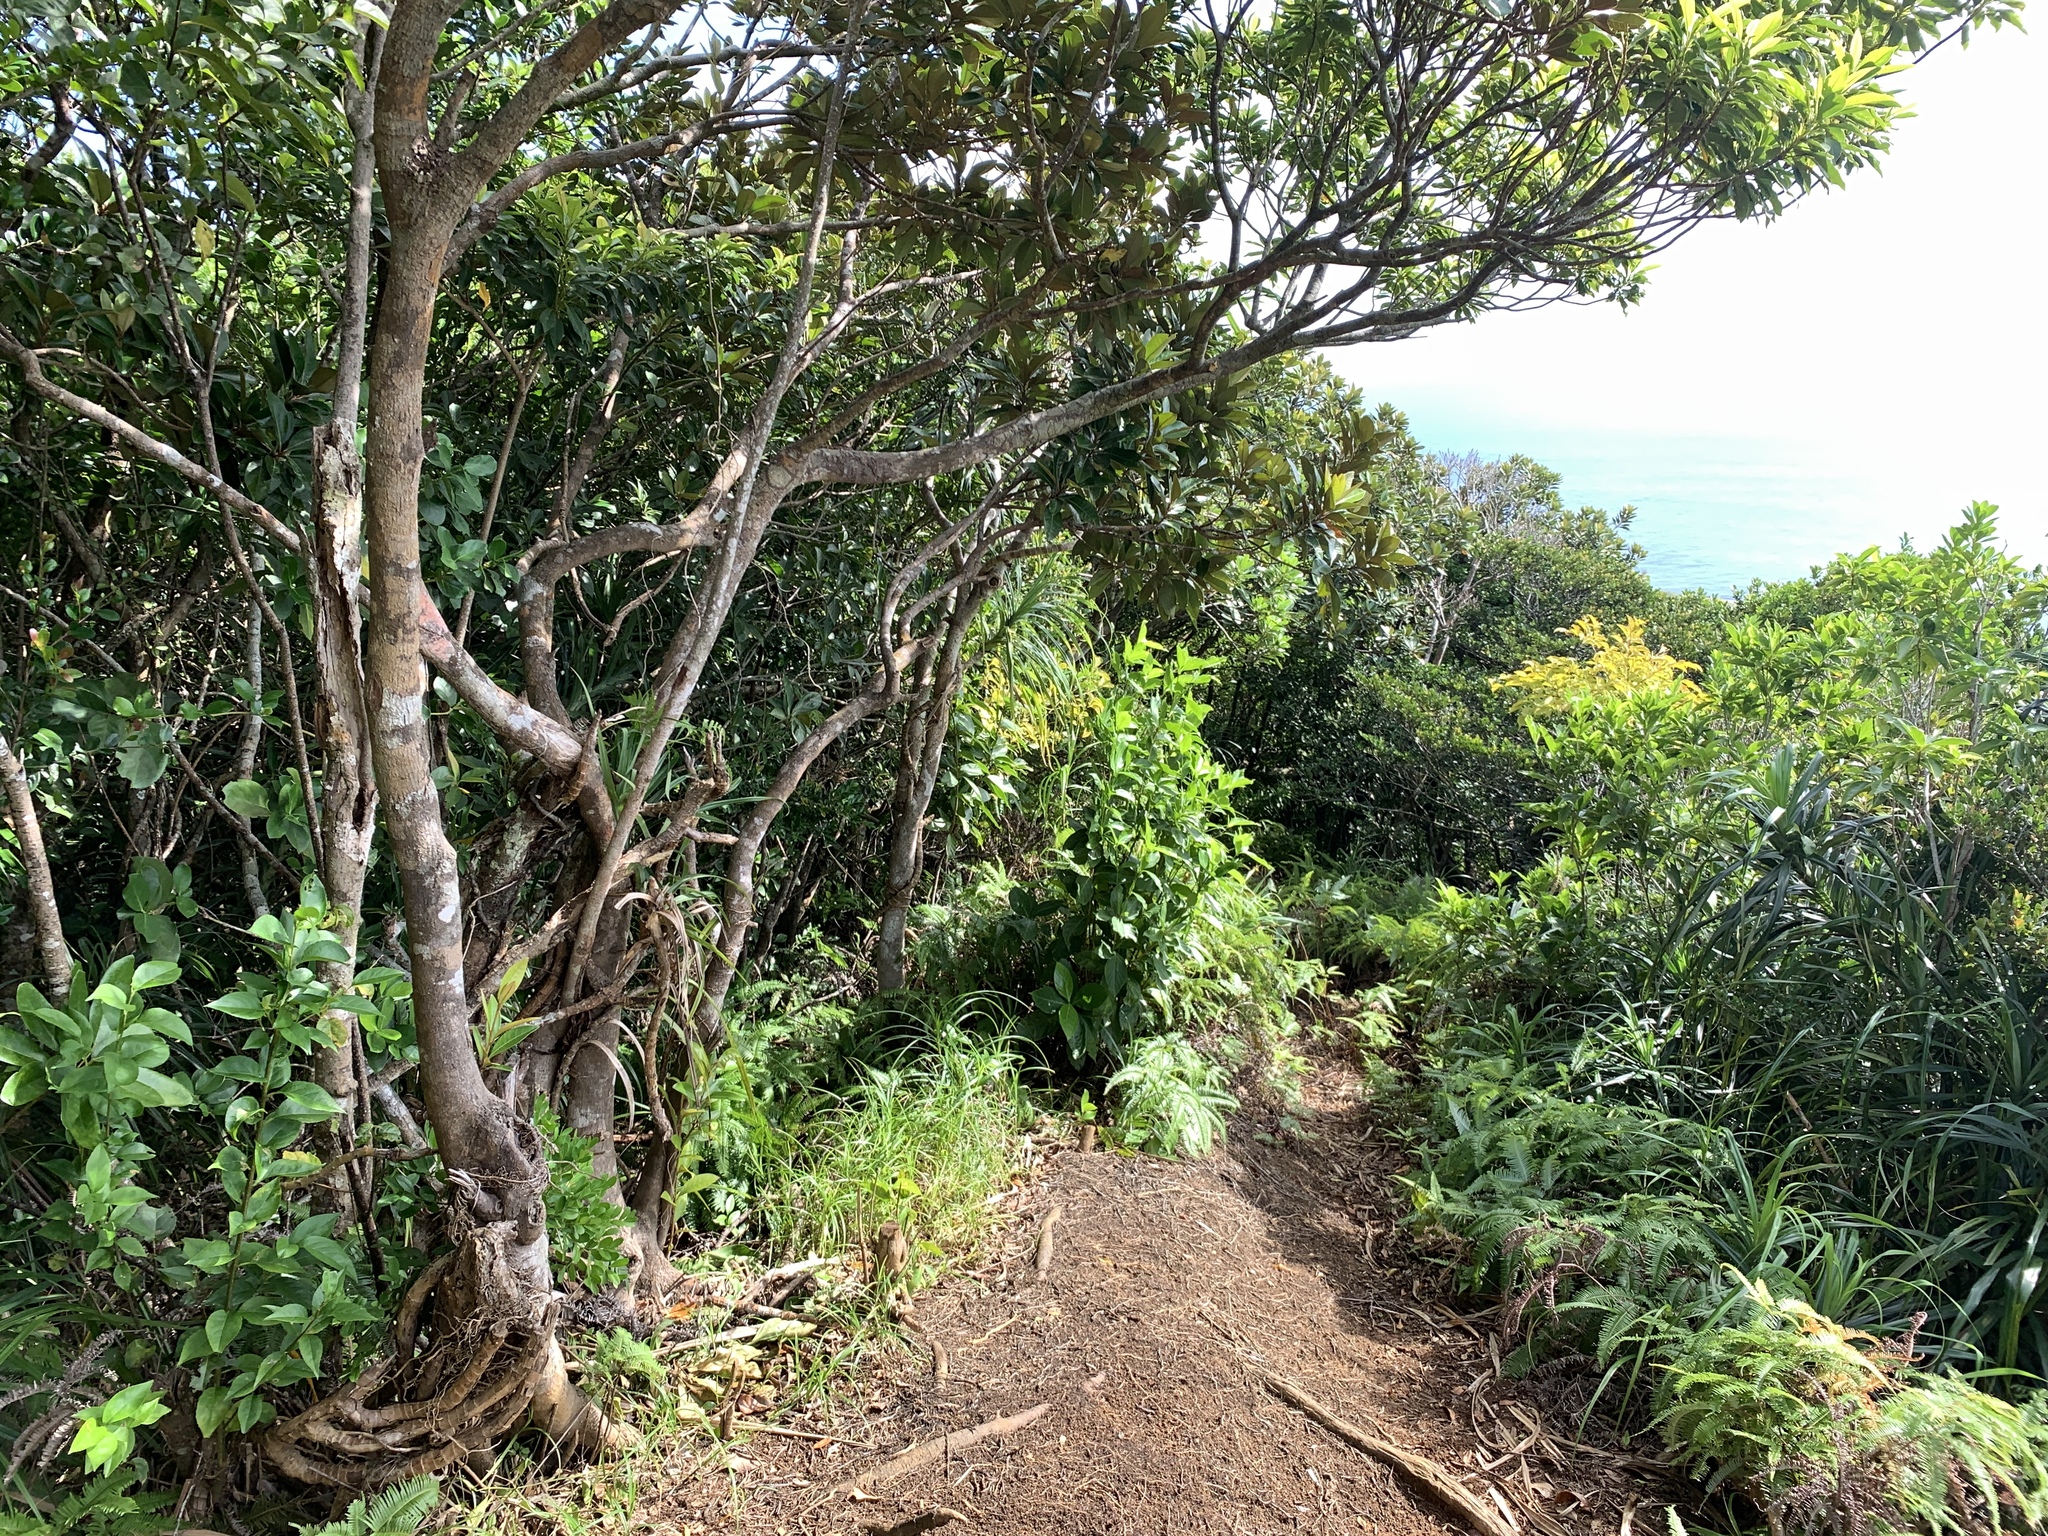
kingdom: Plantae
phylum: Tracheophyta
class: Magnoliopsida
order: Malpighiales
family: Euphorbiaceae
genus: Excoecaria
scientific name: Excoecaria kawakamii
